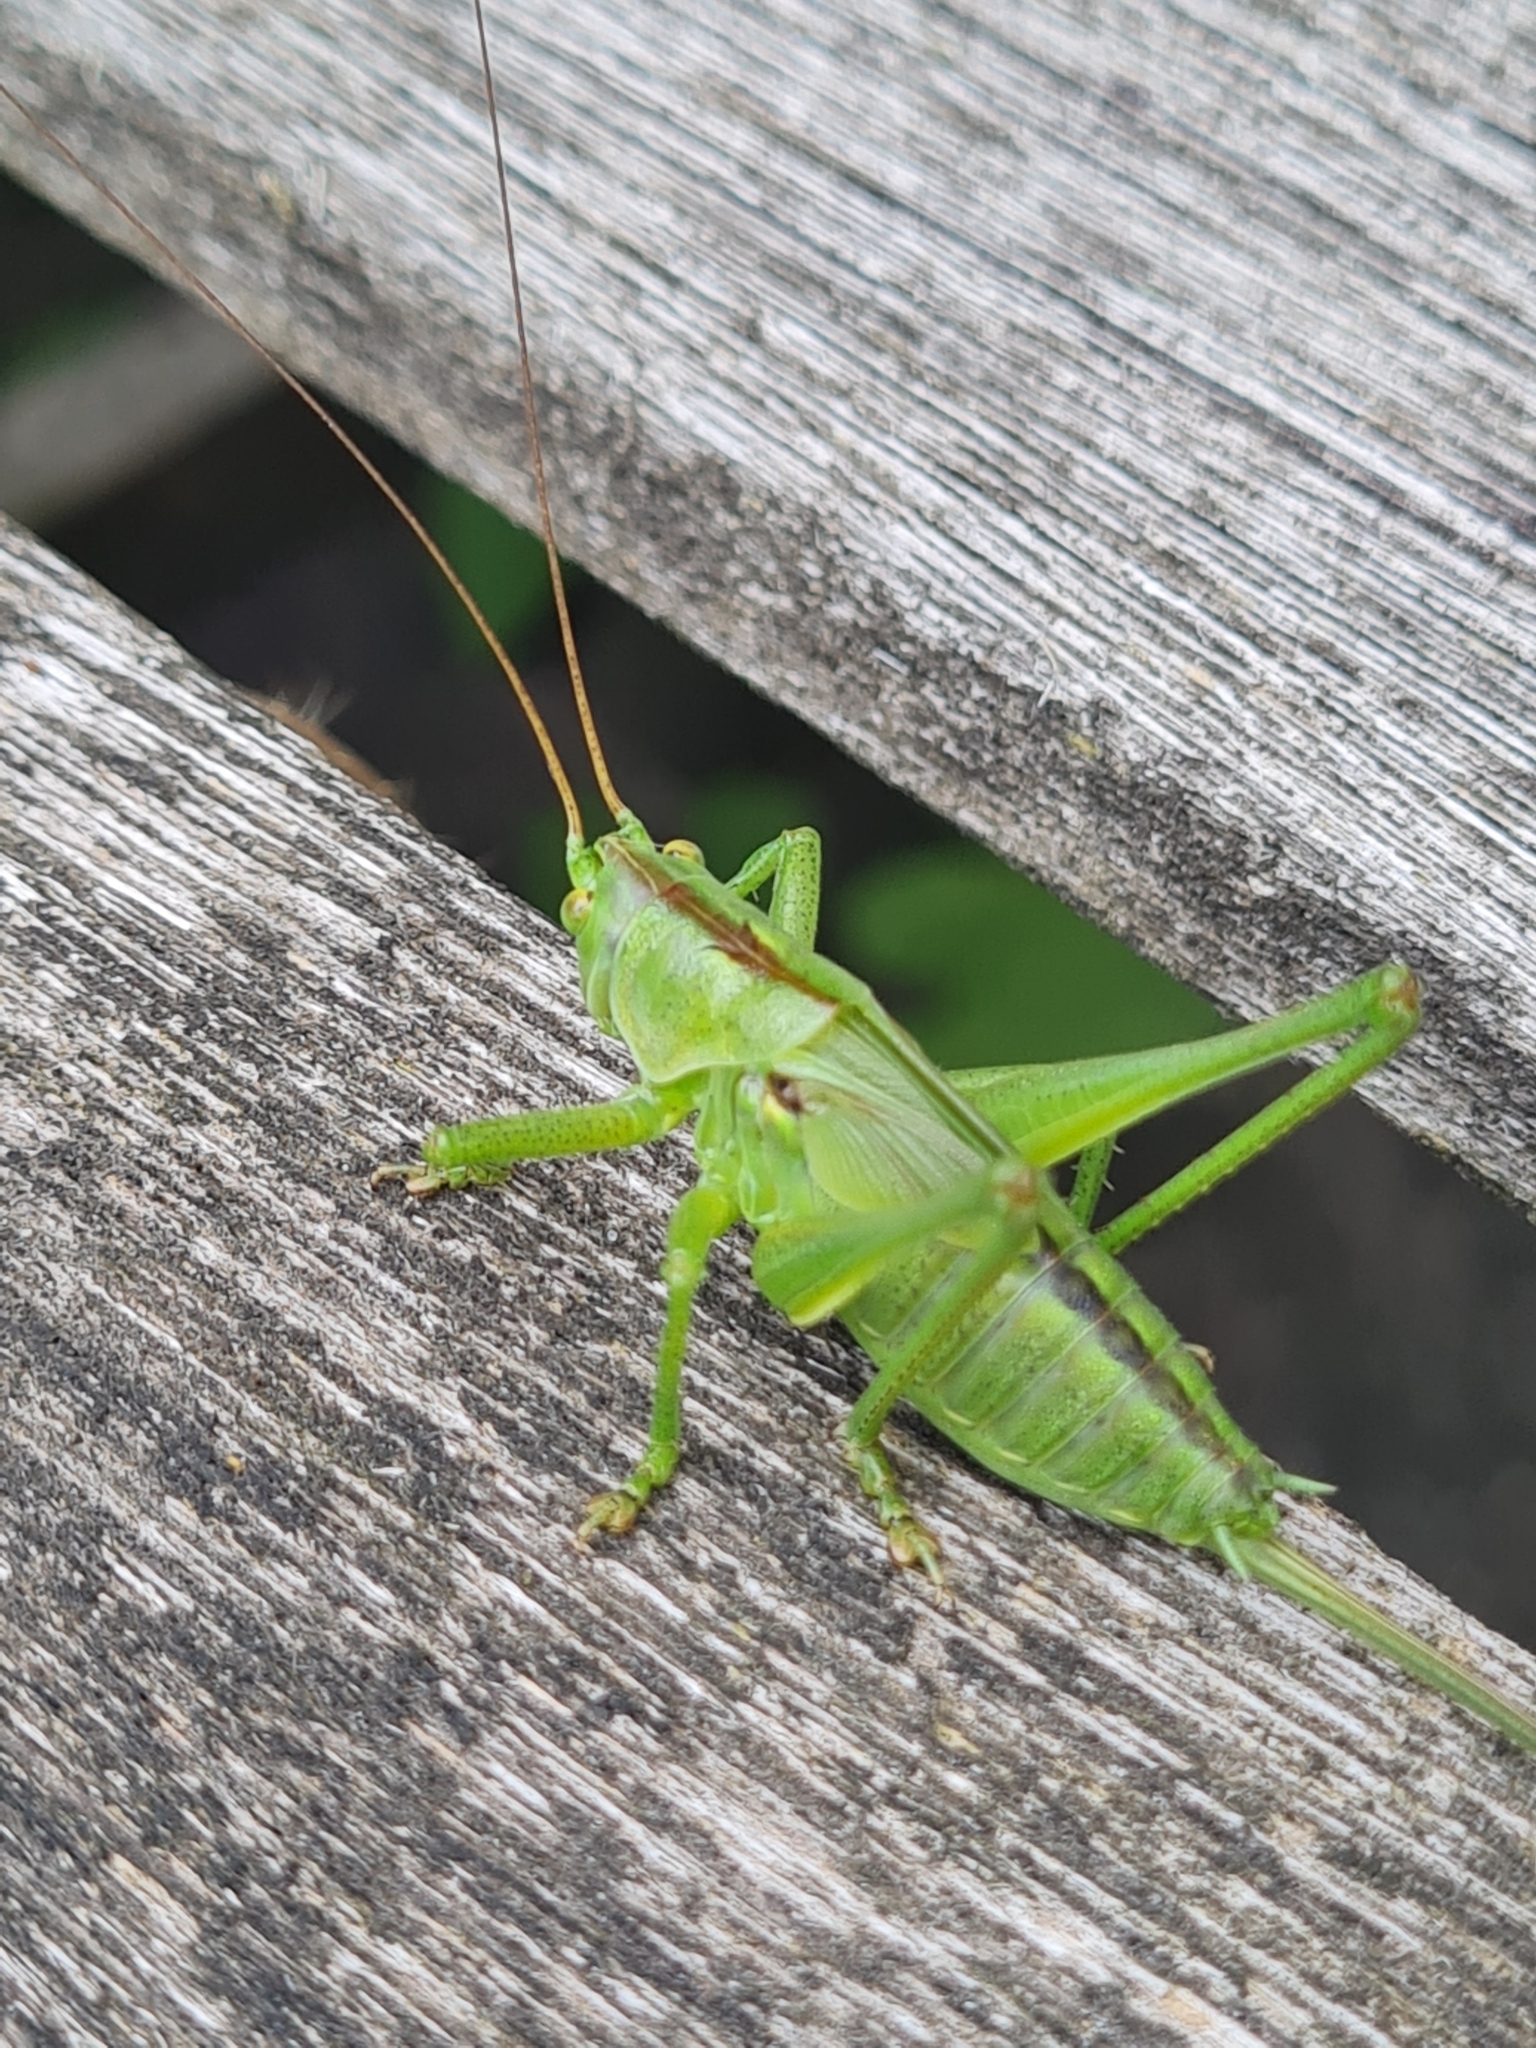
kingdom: Animalia
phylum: Arthropoda
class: Insecta
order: Orthoptera
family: Tettigoniidae
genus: Tettigonia
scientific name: Tettigonia viridissima
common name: Great green bush-cricket
